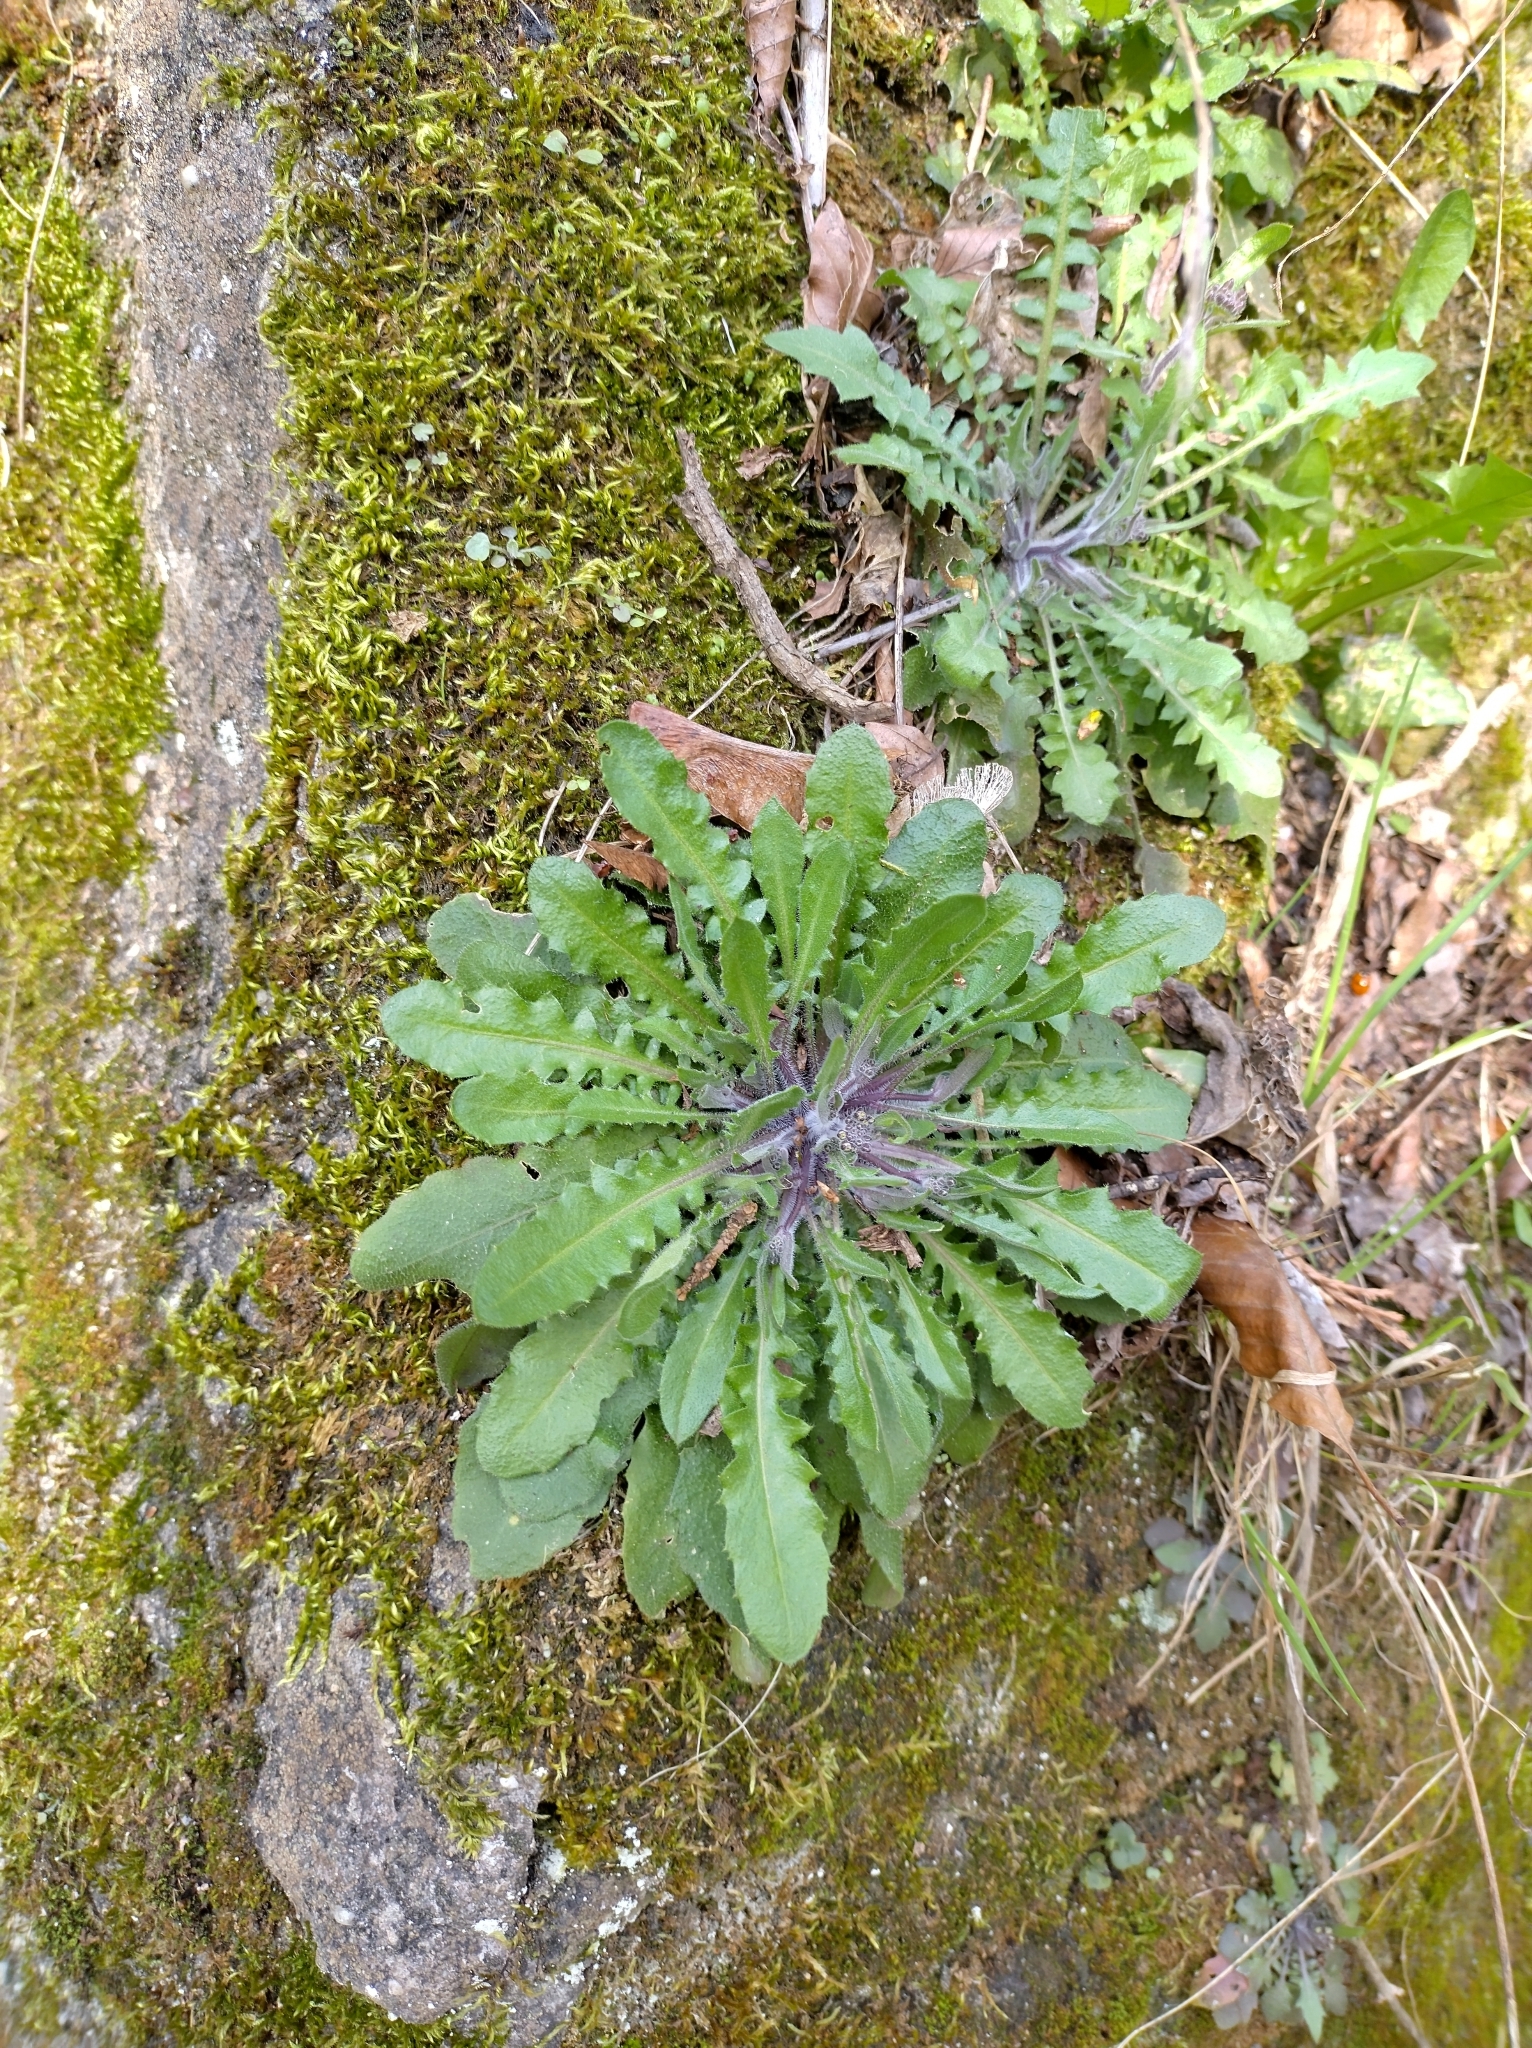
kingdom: Plantae
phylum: Tracheophyta
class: Magnoliopsida
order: Brassicales
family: Brassicaceae
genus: Arabidopsis
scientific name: Arabidopsis arenosa
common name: Sand rock-cress
